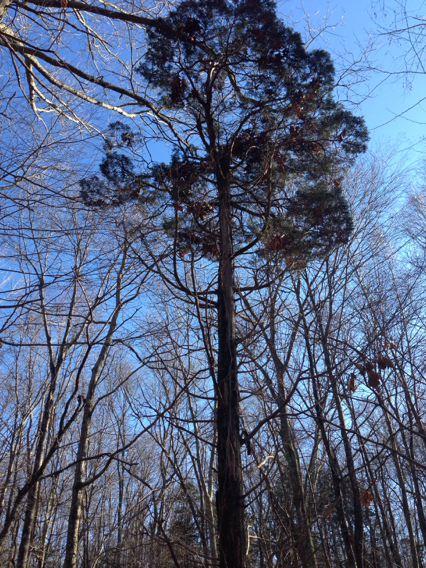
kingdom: Plantae
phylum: Tracheophyta
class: Pinopsida
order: Pinales
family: Cupressaceae
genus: Juniperus
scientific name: Juniperus virginiana
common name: Red juniper
